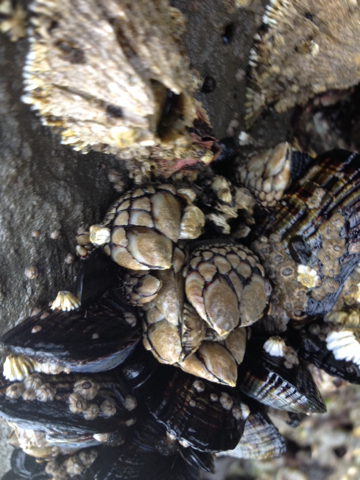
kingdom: Animalia
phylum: Arthropoda
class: Maxillopoda
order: Pedunculata
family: Pollicipedidae
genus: Pollicipes
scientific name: Pollicipes polymerus
